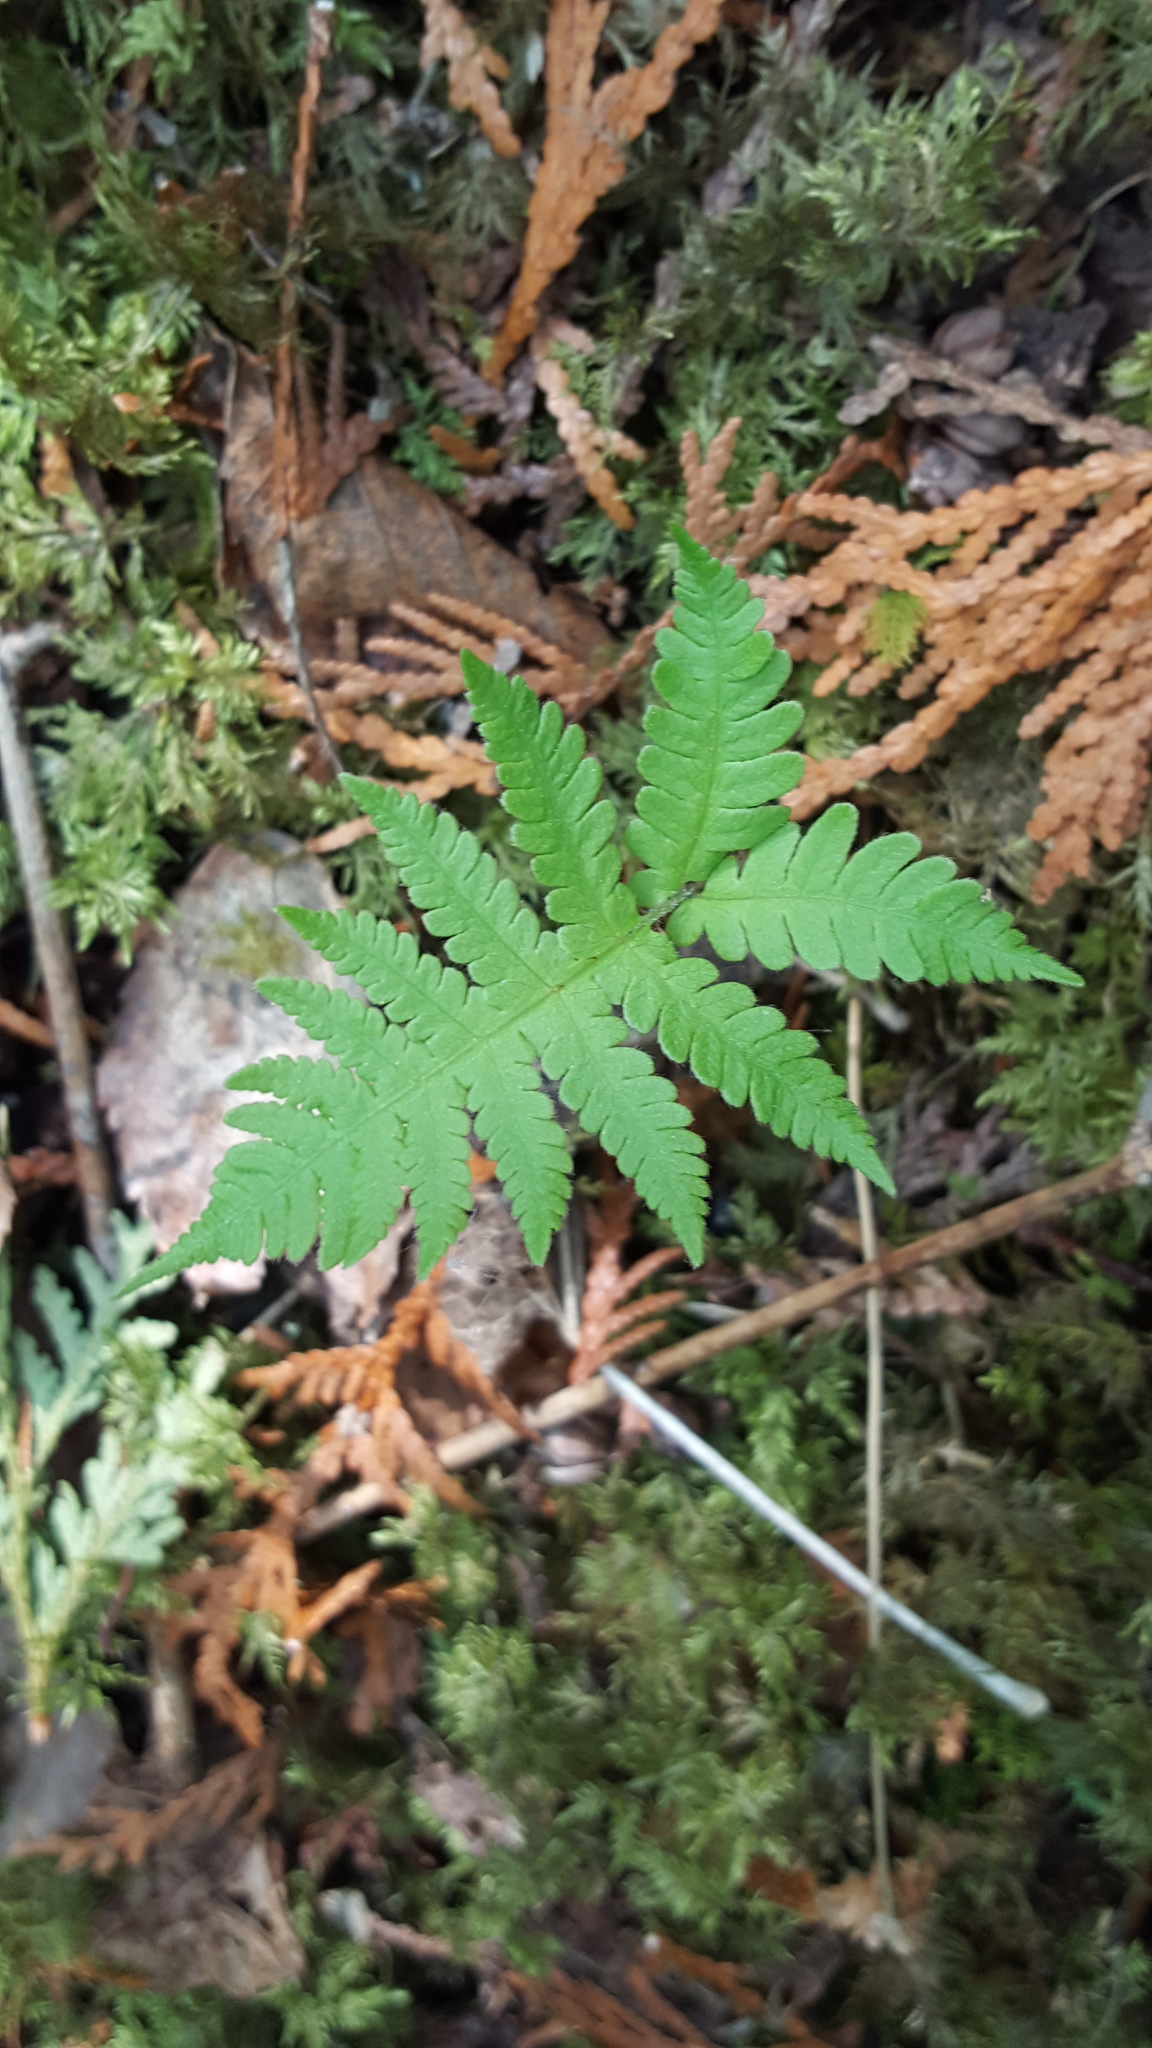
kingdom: Plantae
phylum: Tracheophyta
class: Polypodiopsida
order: Polypodiales
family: Thelypteridaceae
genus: Phegopteris
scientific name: Phegopteris connectilis
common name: Beech fern
